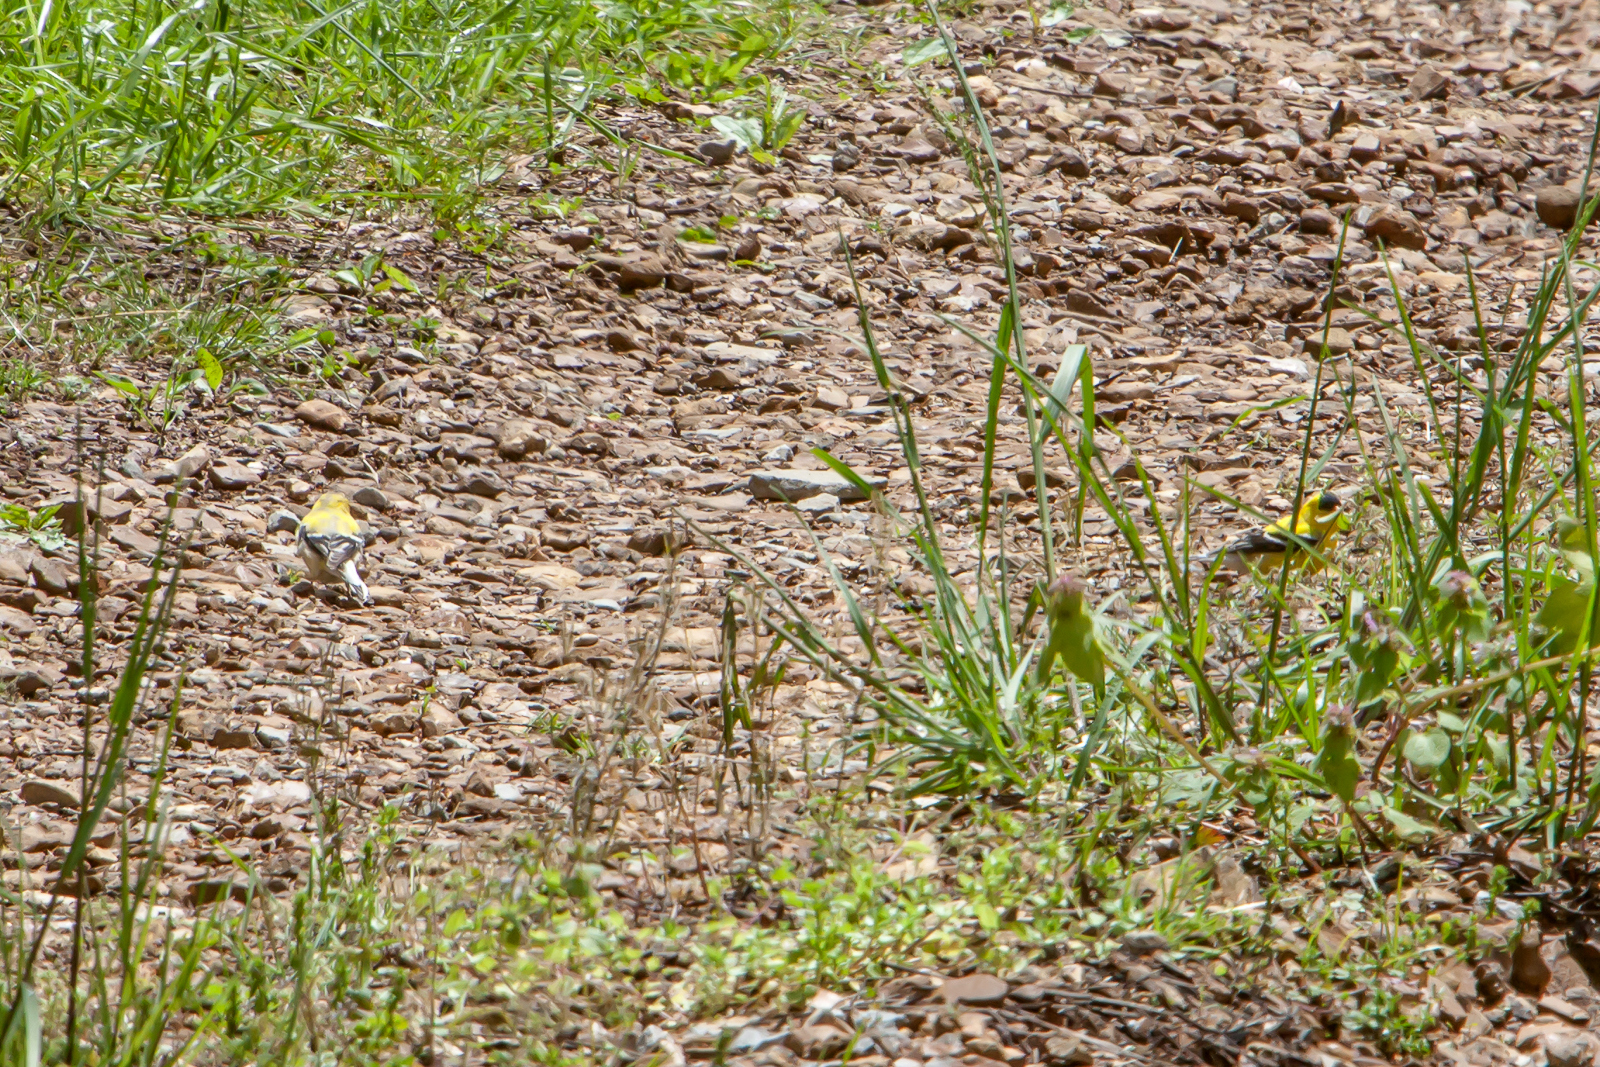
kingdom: Animalia
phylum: Chordata
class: Aves
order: Passeriformes
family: Fringillidae
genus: Spinus
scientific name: Spinus tristis
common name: American goldfinch
